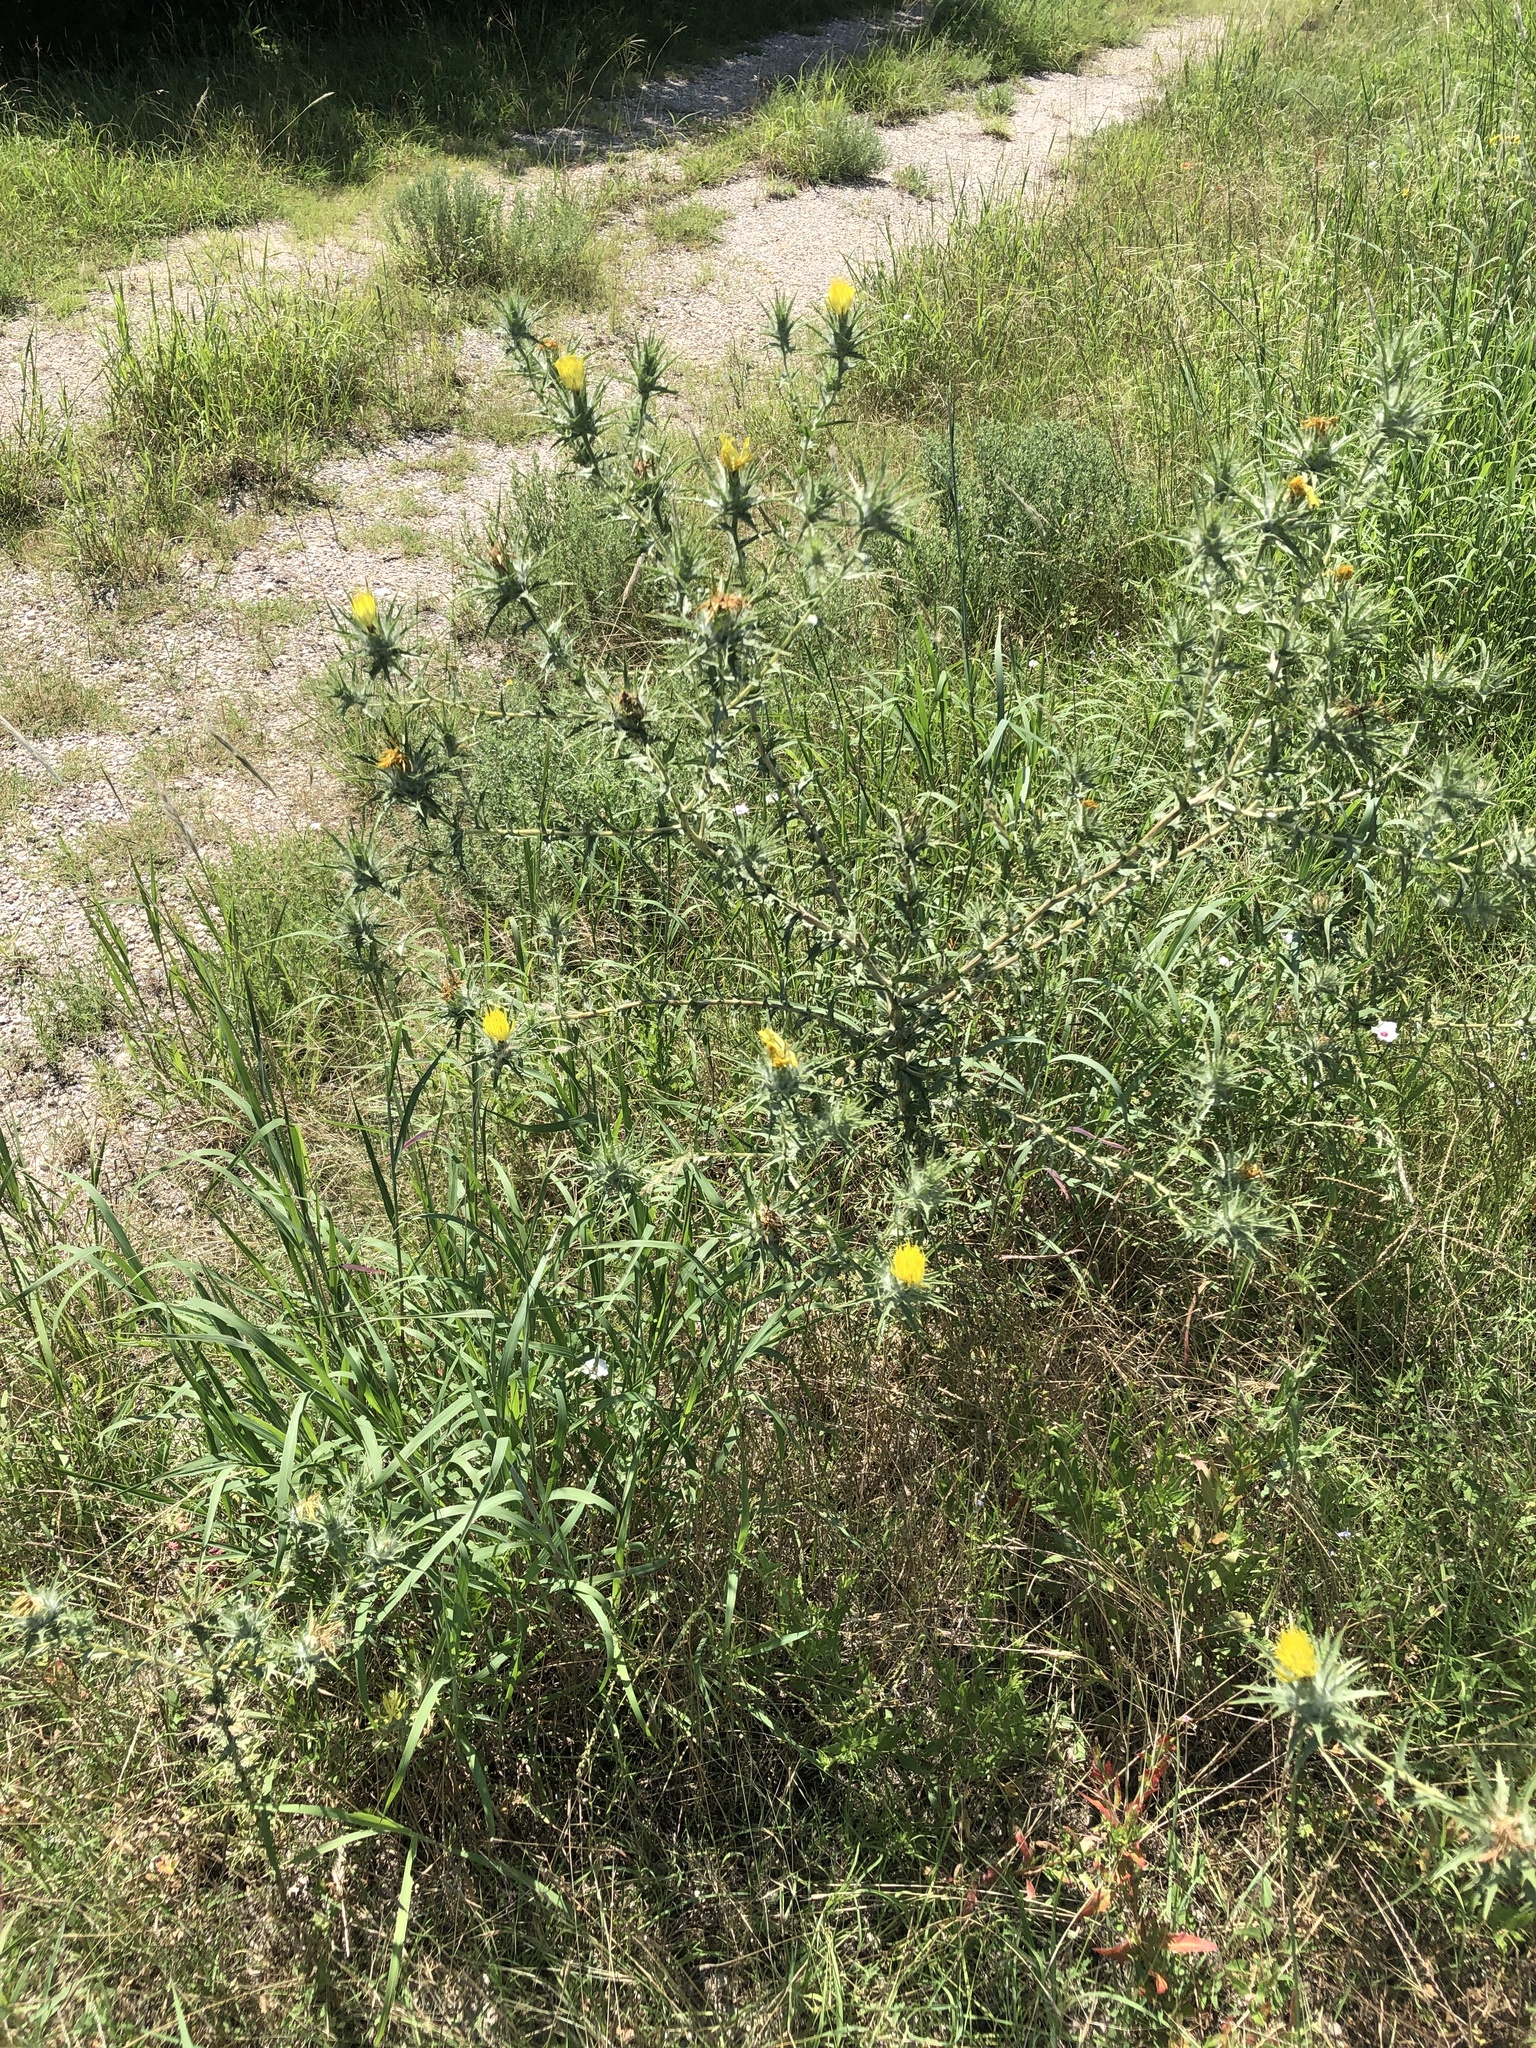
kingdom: Plantae
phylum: Tracheophyta
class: Magnoliopsida
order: Asterales
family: Asteraceae
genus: Carthamus
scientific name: Carthamus lanatus
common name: Downy safflower
